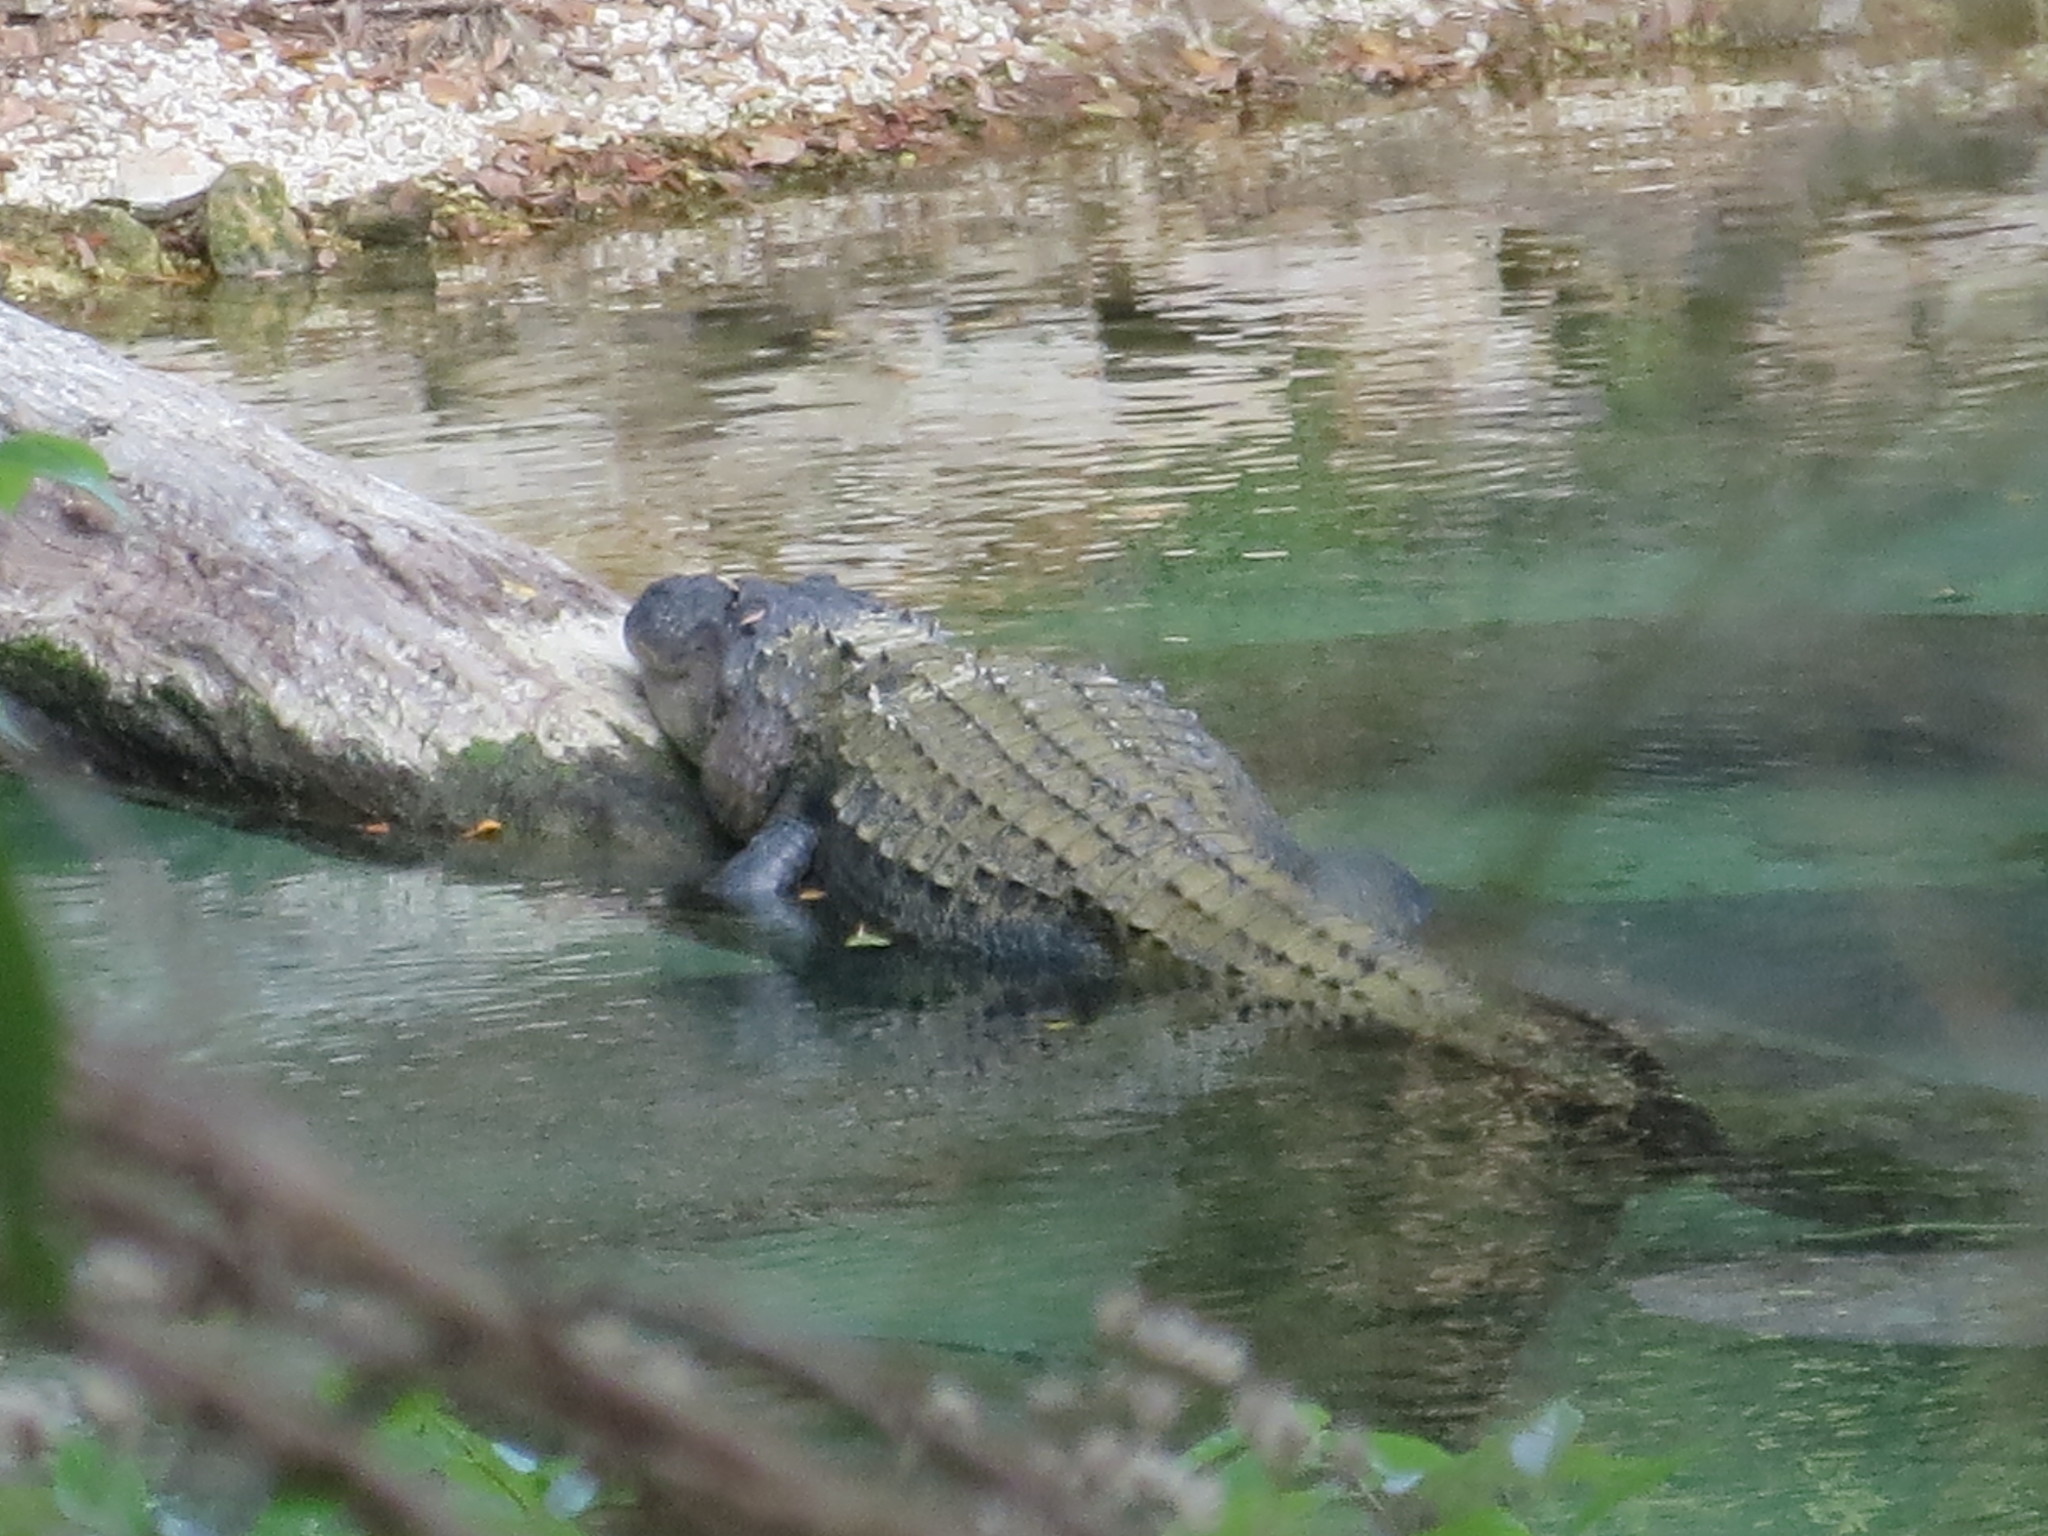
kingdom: Animalia
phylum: Chordata
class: Crocodylia
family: Alligatoridae
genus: Alligator
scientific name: Alligator mississippiensis
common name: American alligator
